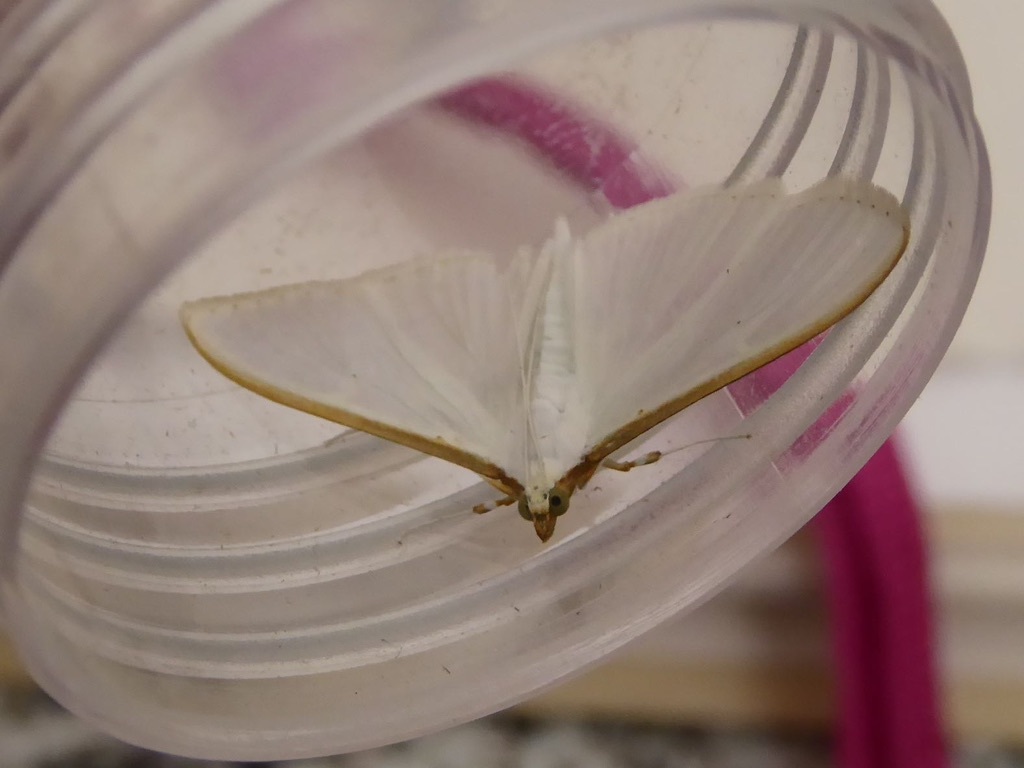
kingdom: Animalia
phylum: Arthropoda
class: Insecta
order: Lepidoptera
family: Crambidae
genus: Palpita
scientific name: Palpita vitrealis
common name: Olive-tree pearl
